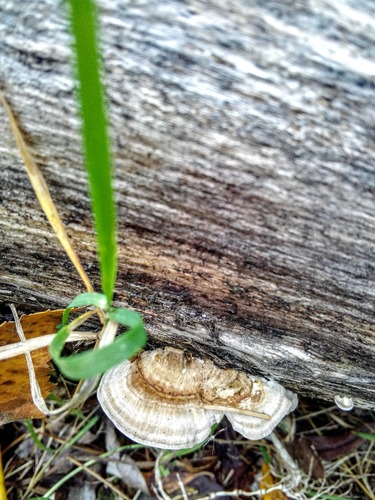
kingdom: Fungi
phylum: Basidiomycota
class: Agaricomycetes
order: Polyporales
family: Polyporaceae
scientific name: Polyporaceae
